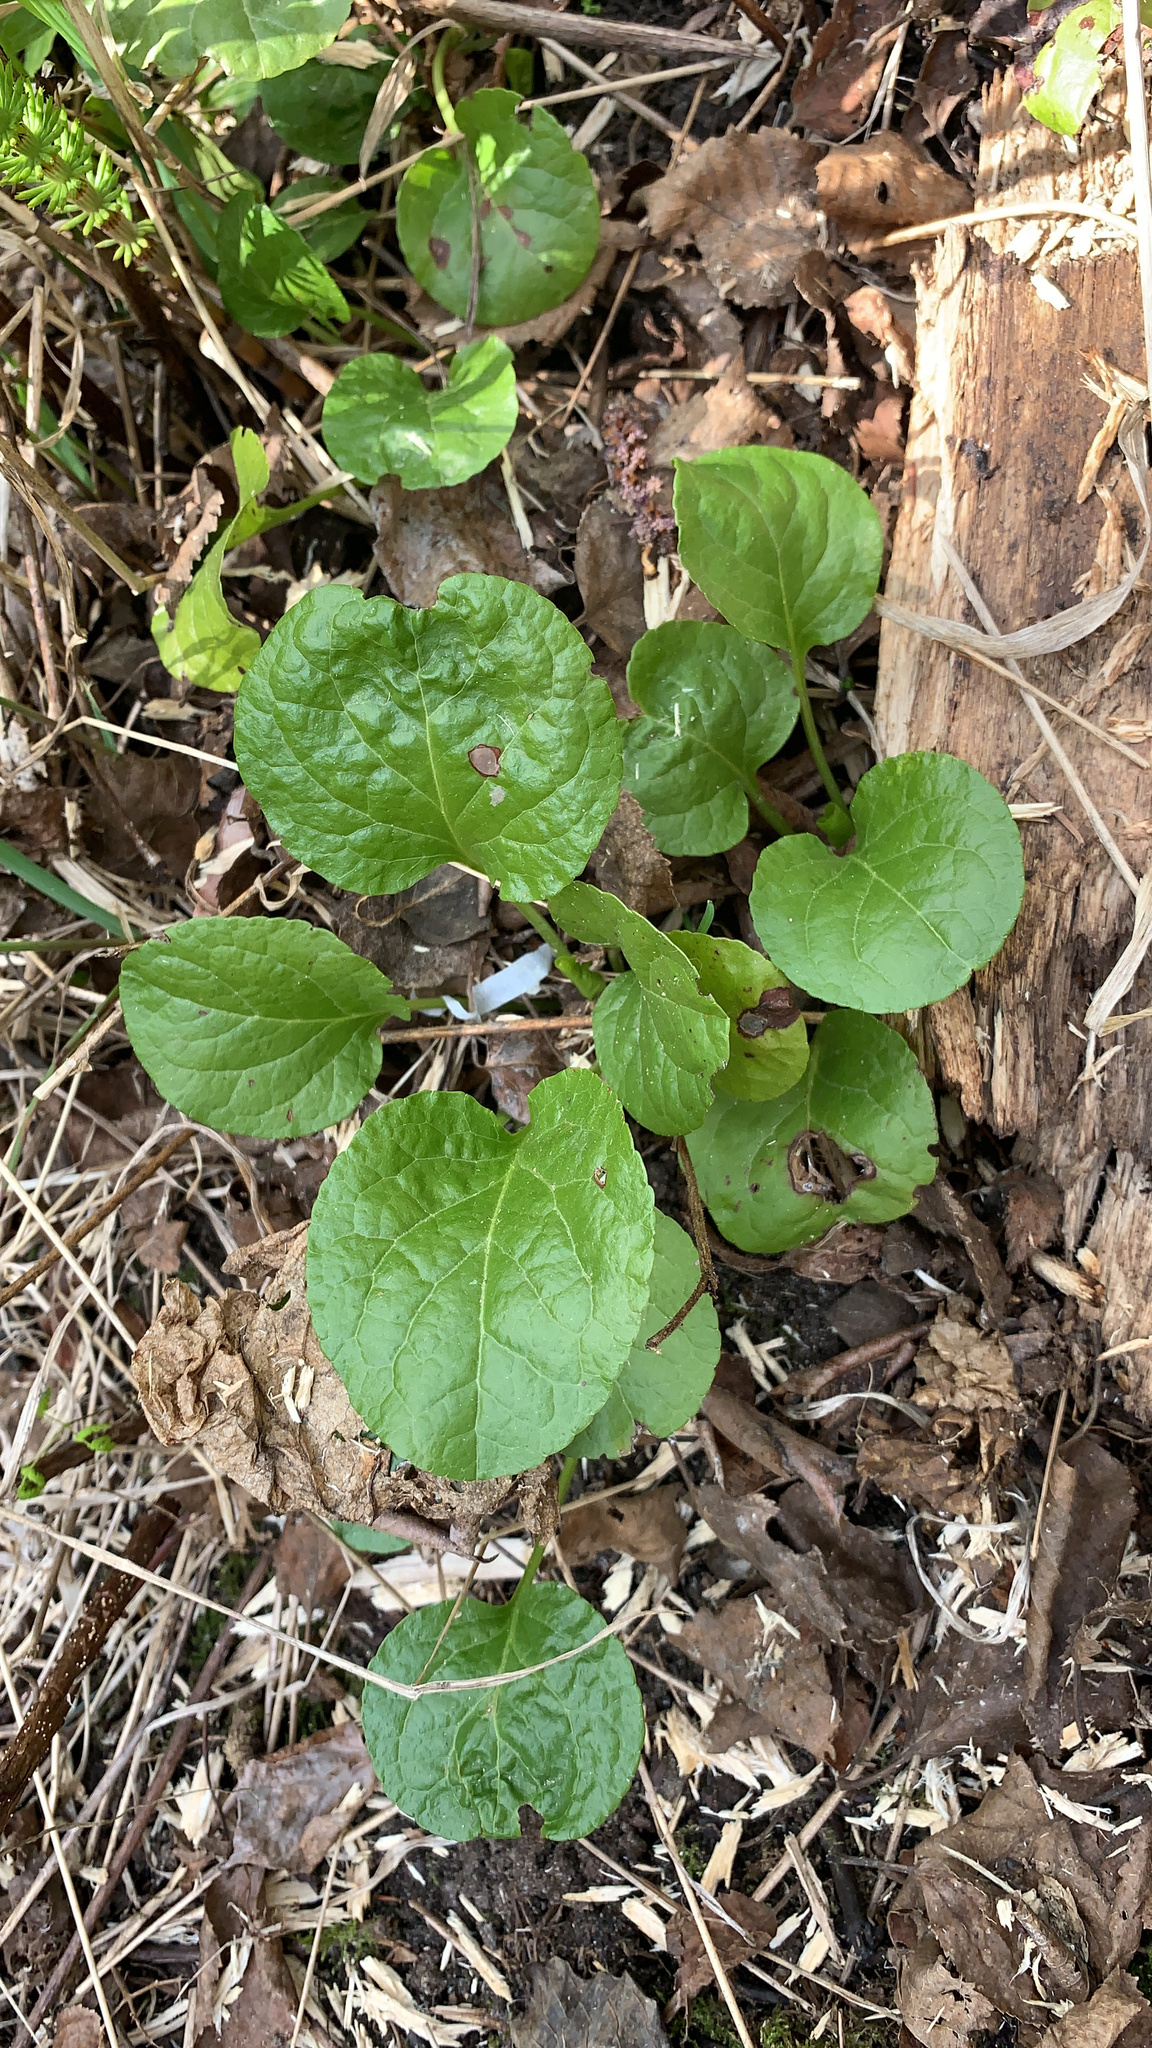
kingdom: Plantae
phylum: Tracheophyta
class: Magnoliopsida
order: Ericales
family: Ericaceae
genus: Pyrola
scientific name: Pyrola asarifolia
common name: Bog wintergreen
